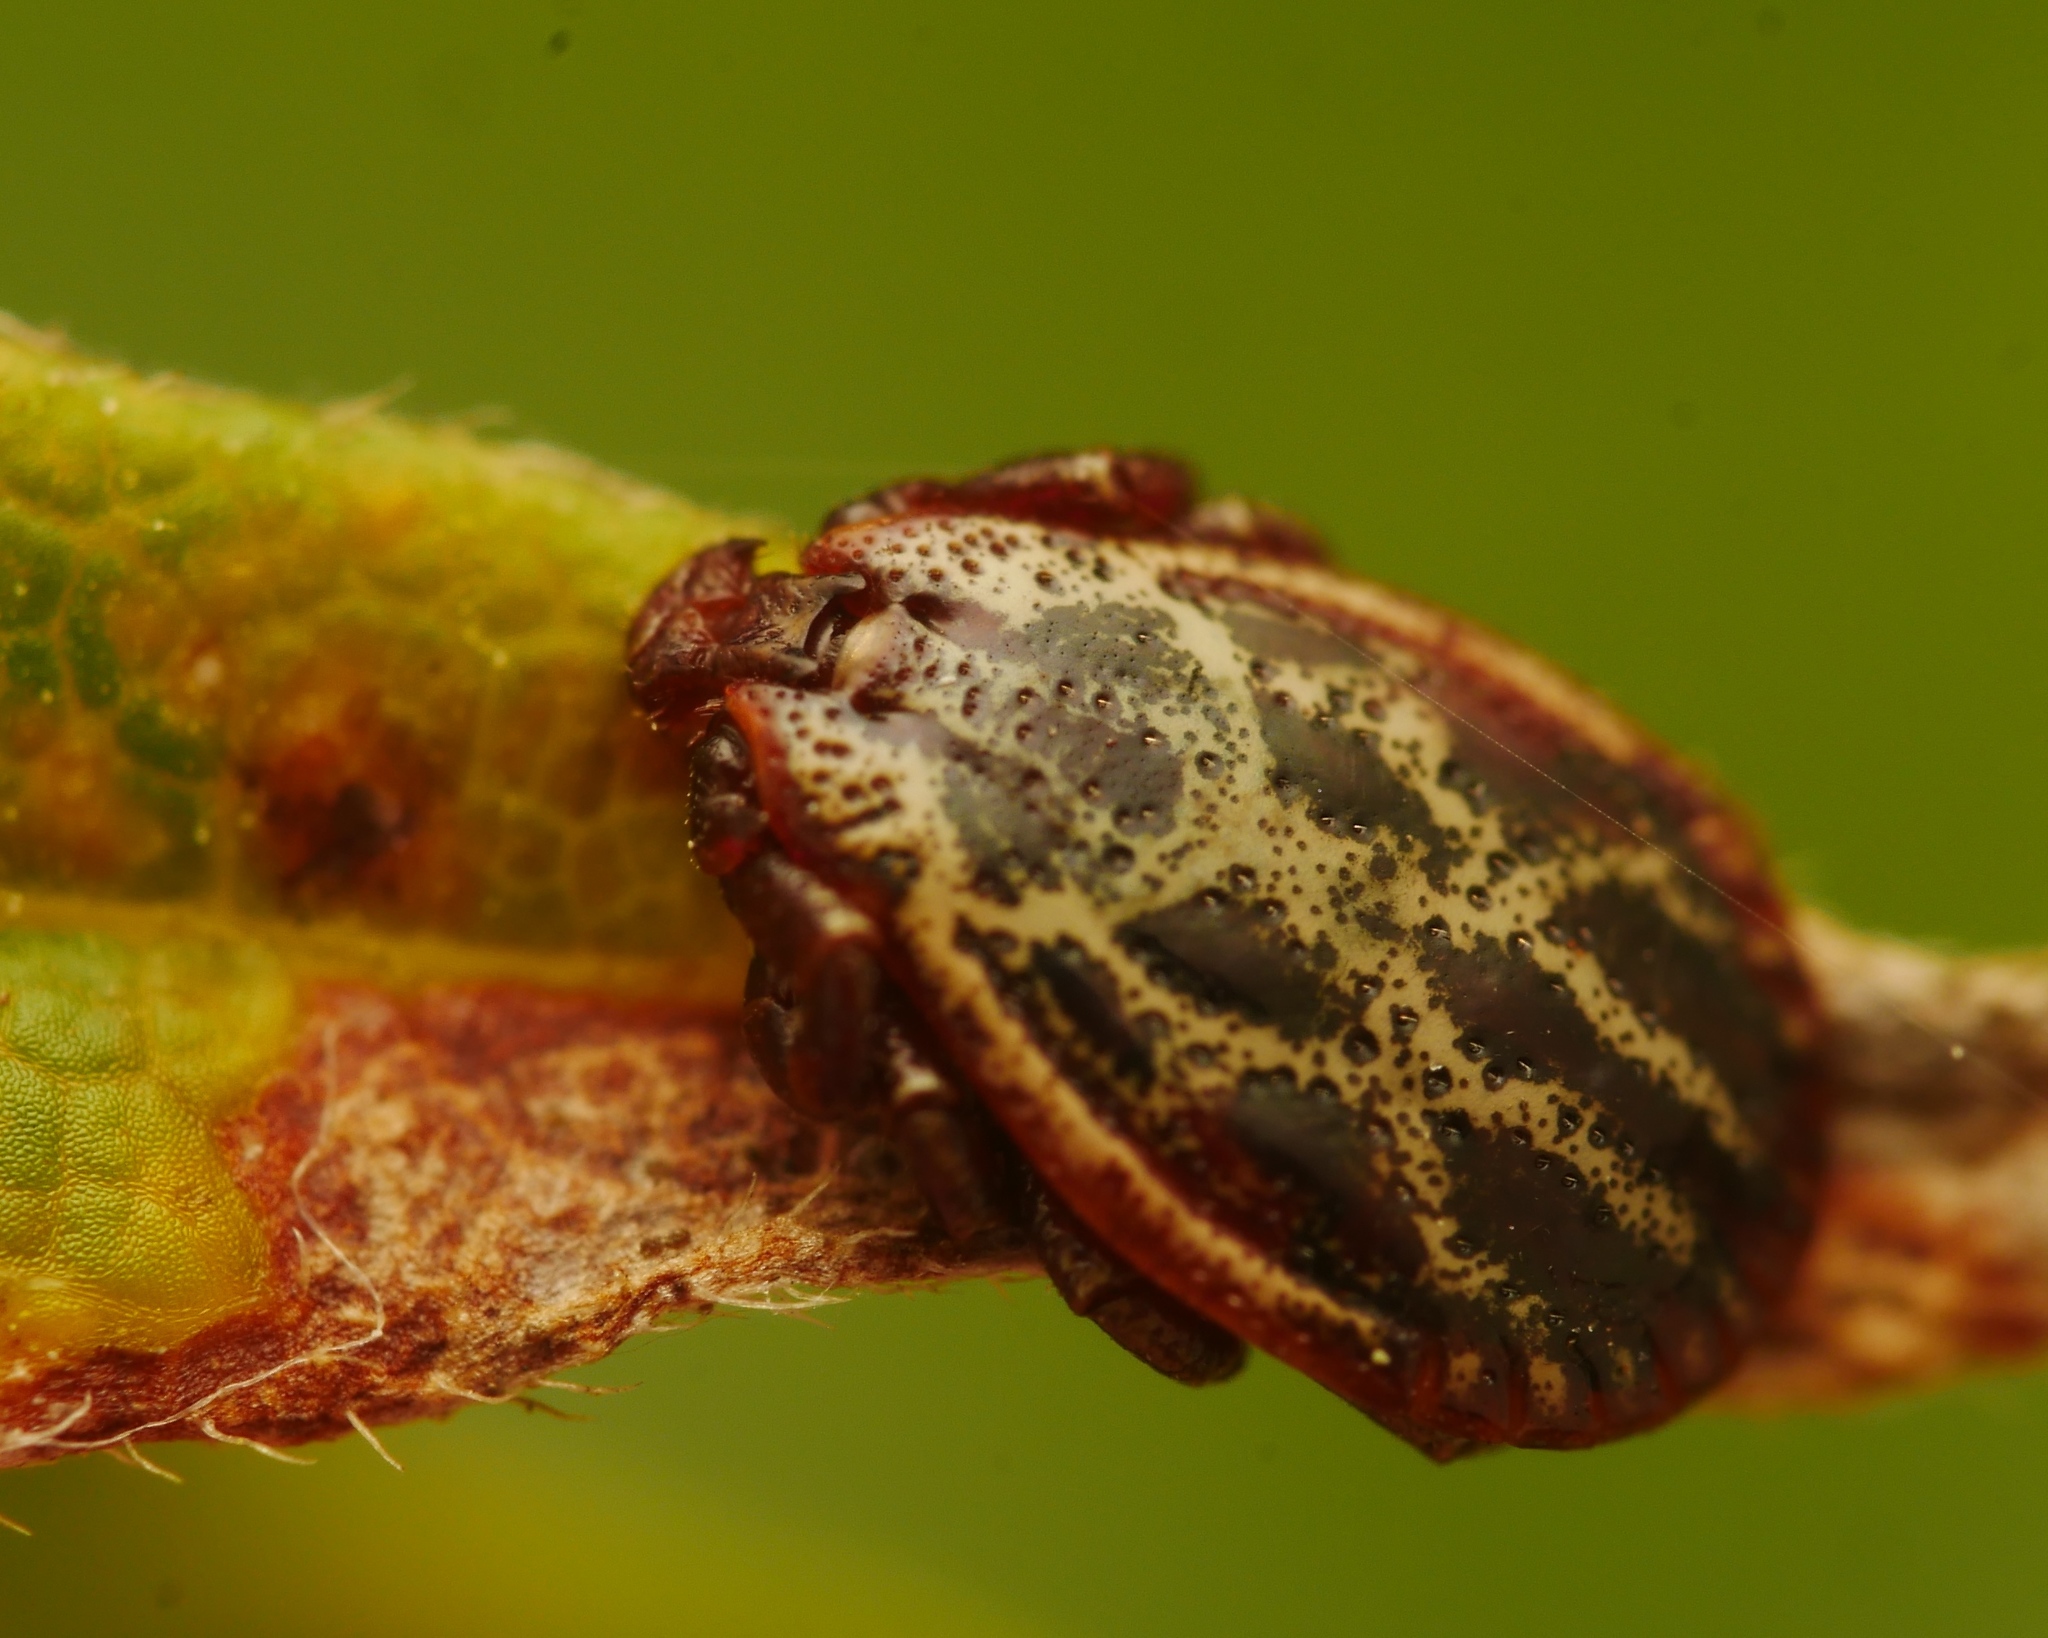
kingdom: Animalia
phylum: Arthropoda
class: Arachnida
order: Ixodida
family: Ixodidae
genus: Dermacentor
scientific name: Dermacentor reticulatus
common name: Ornate cow tick
